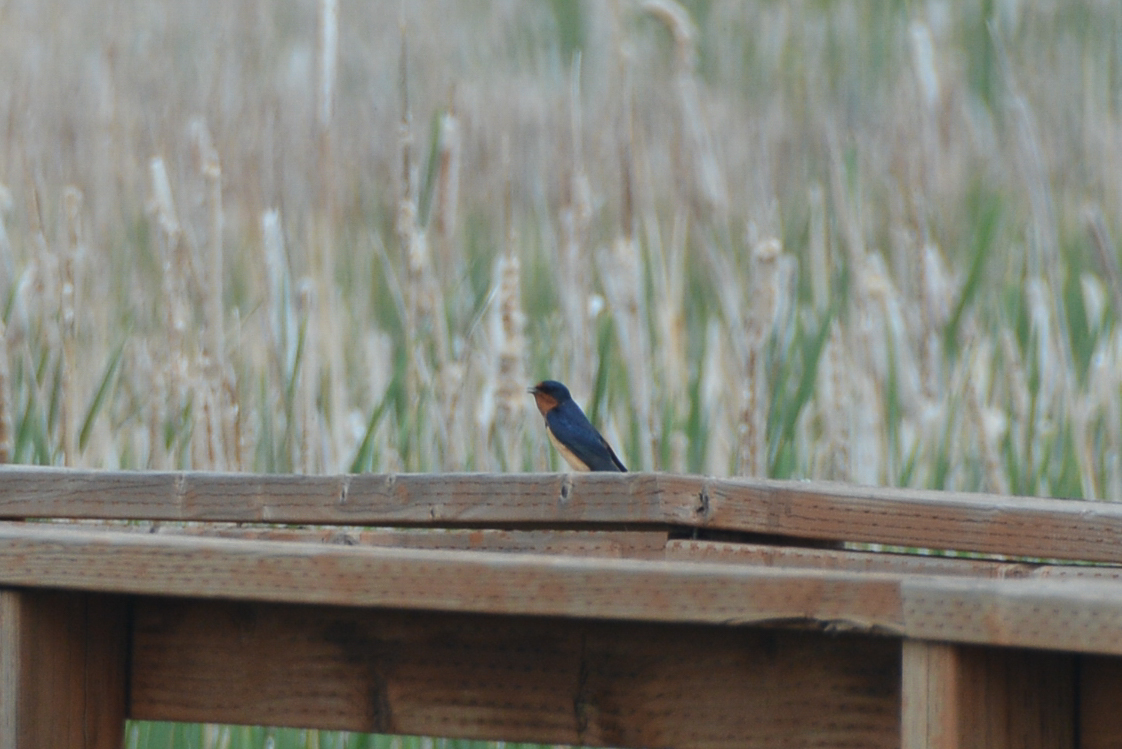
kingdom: Animalia
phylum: Chordata
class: Aves
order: Passeriformes
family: Hirundinidae
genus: Hirundo
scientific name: Hirundo rustica
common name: Barn swallow
